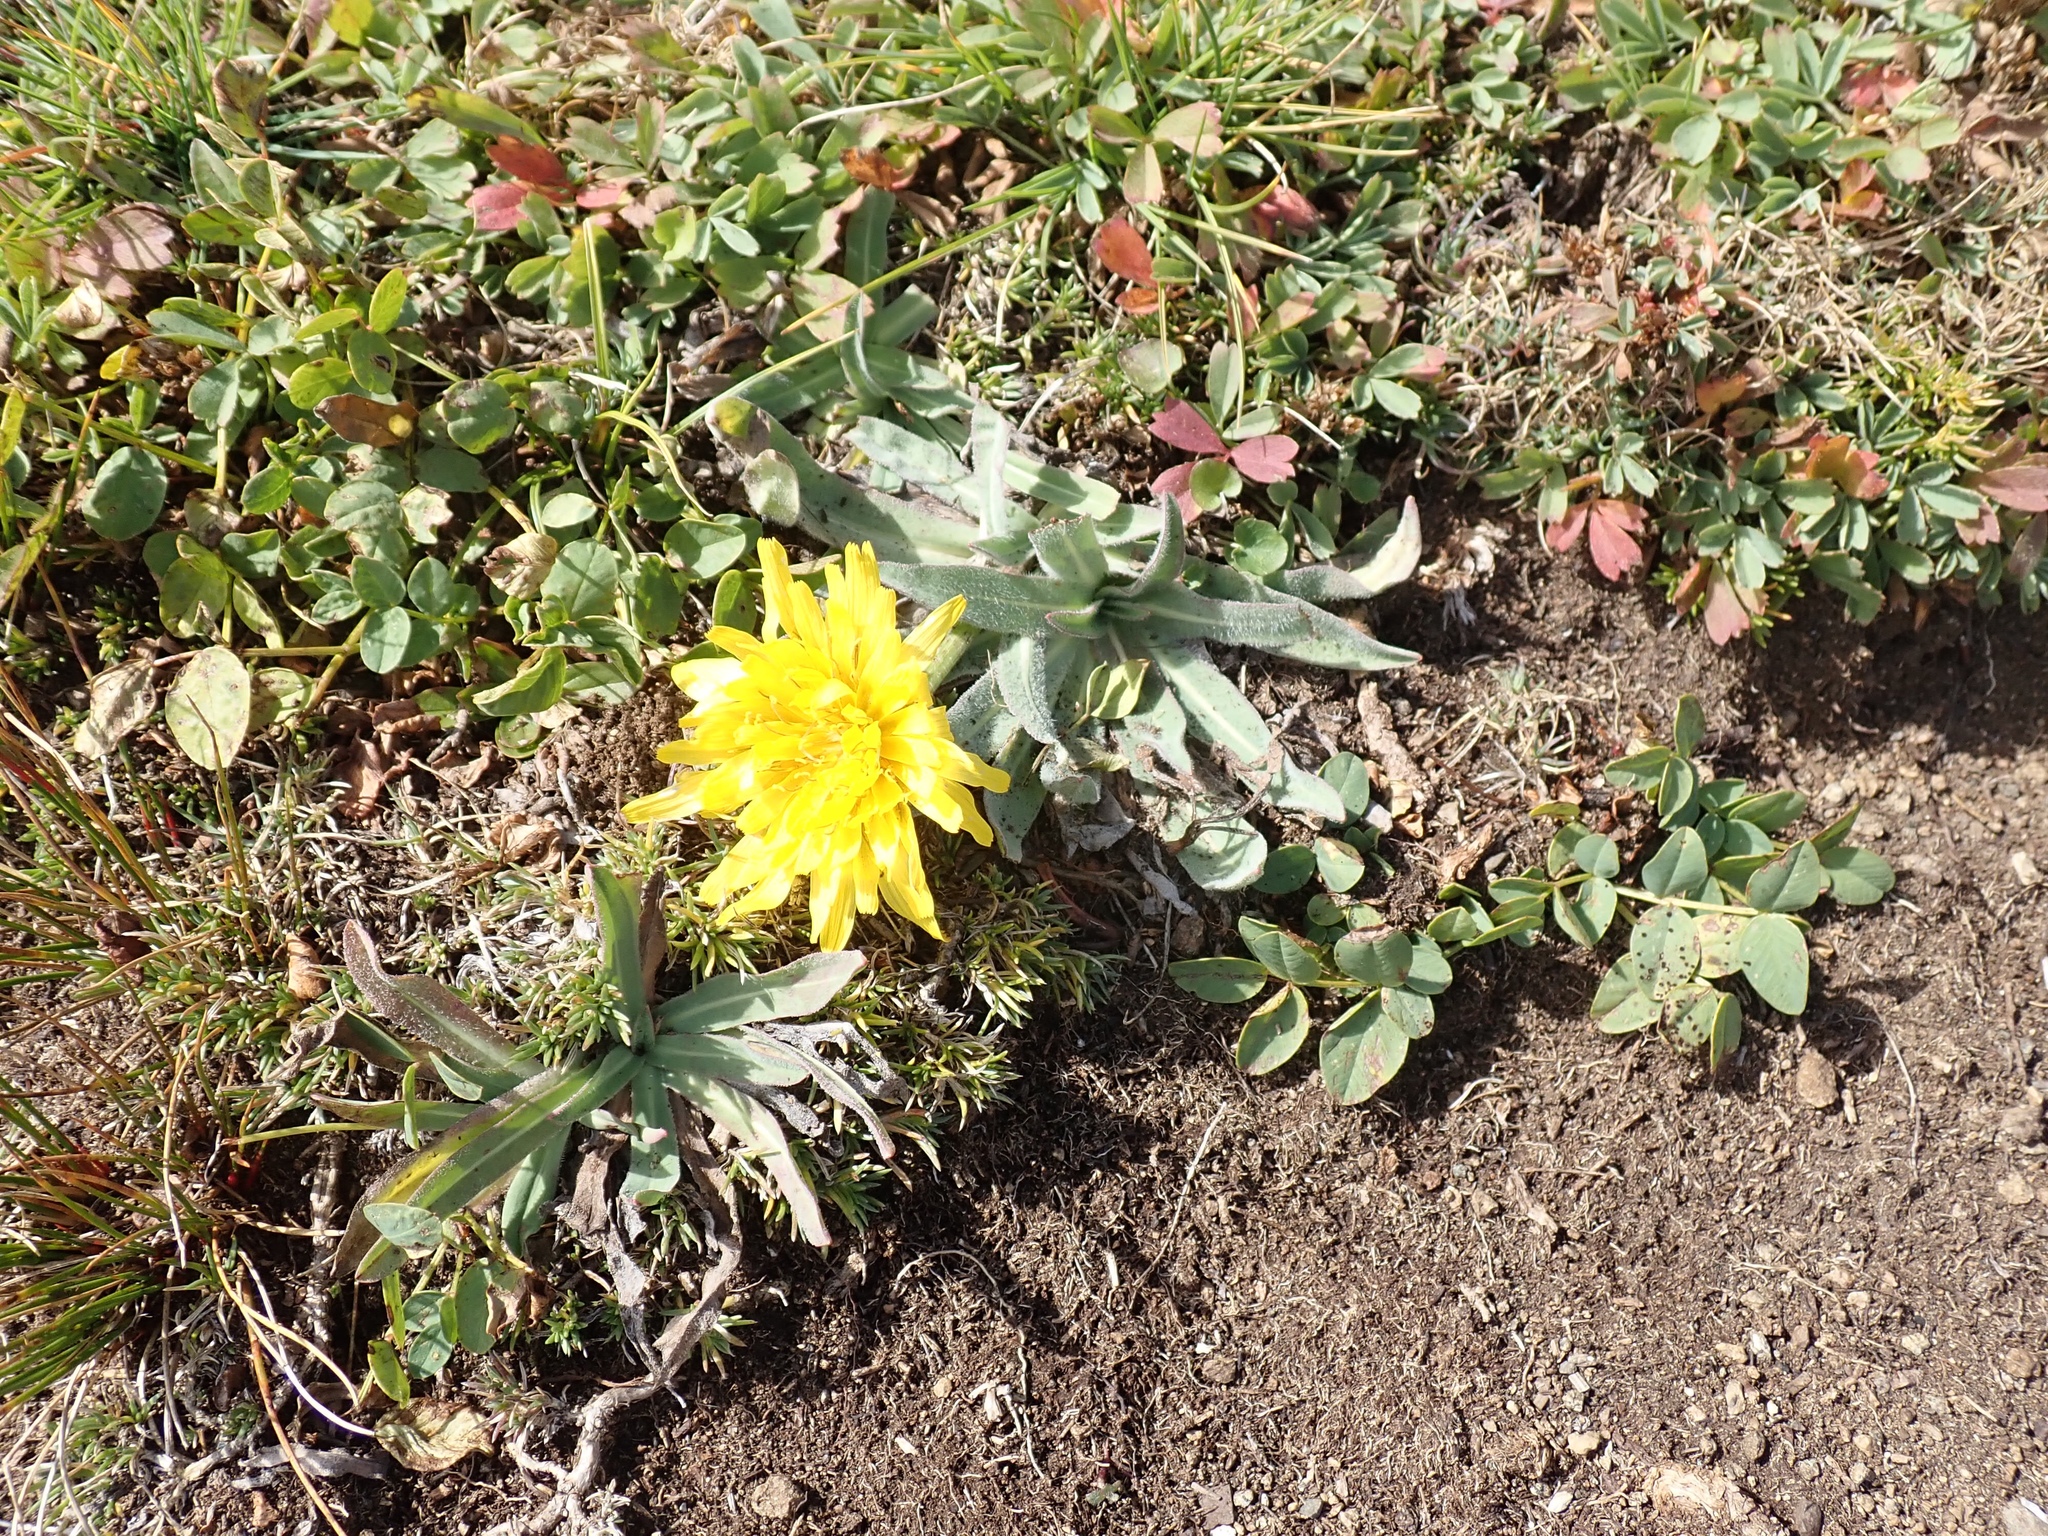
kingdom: Plantae
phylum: Tracheophyta
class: Magnoliopsida
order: Asterales
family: Asteraceae
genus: Agoseris
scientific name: Agoseris glauca
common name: Prairie agoseris
